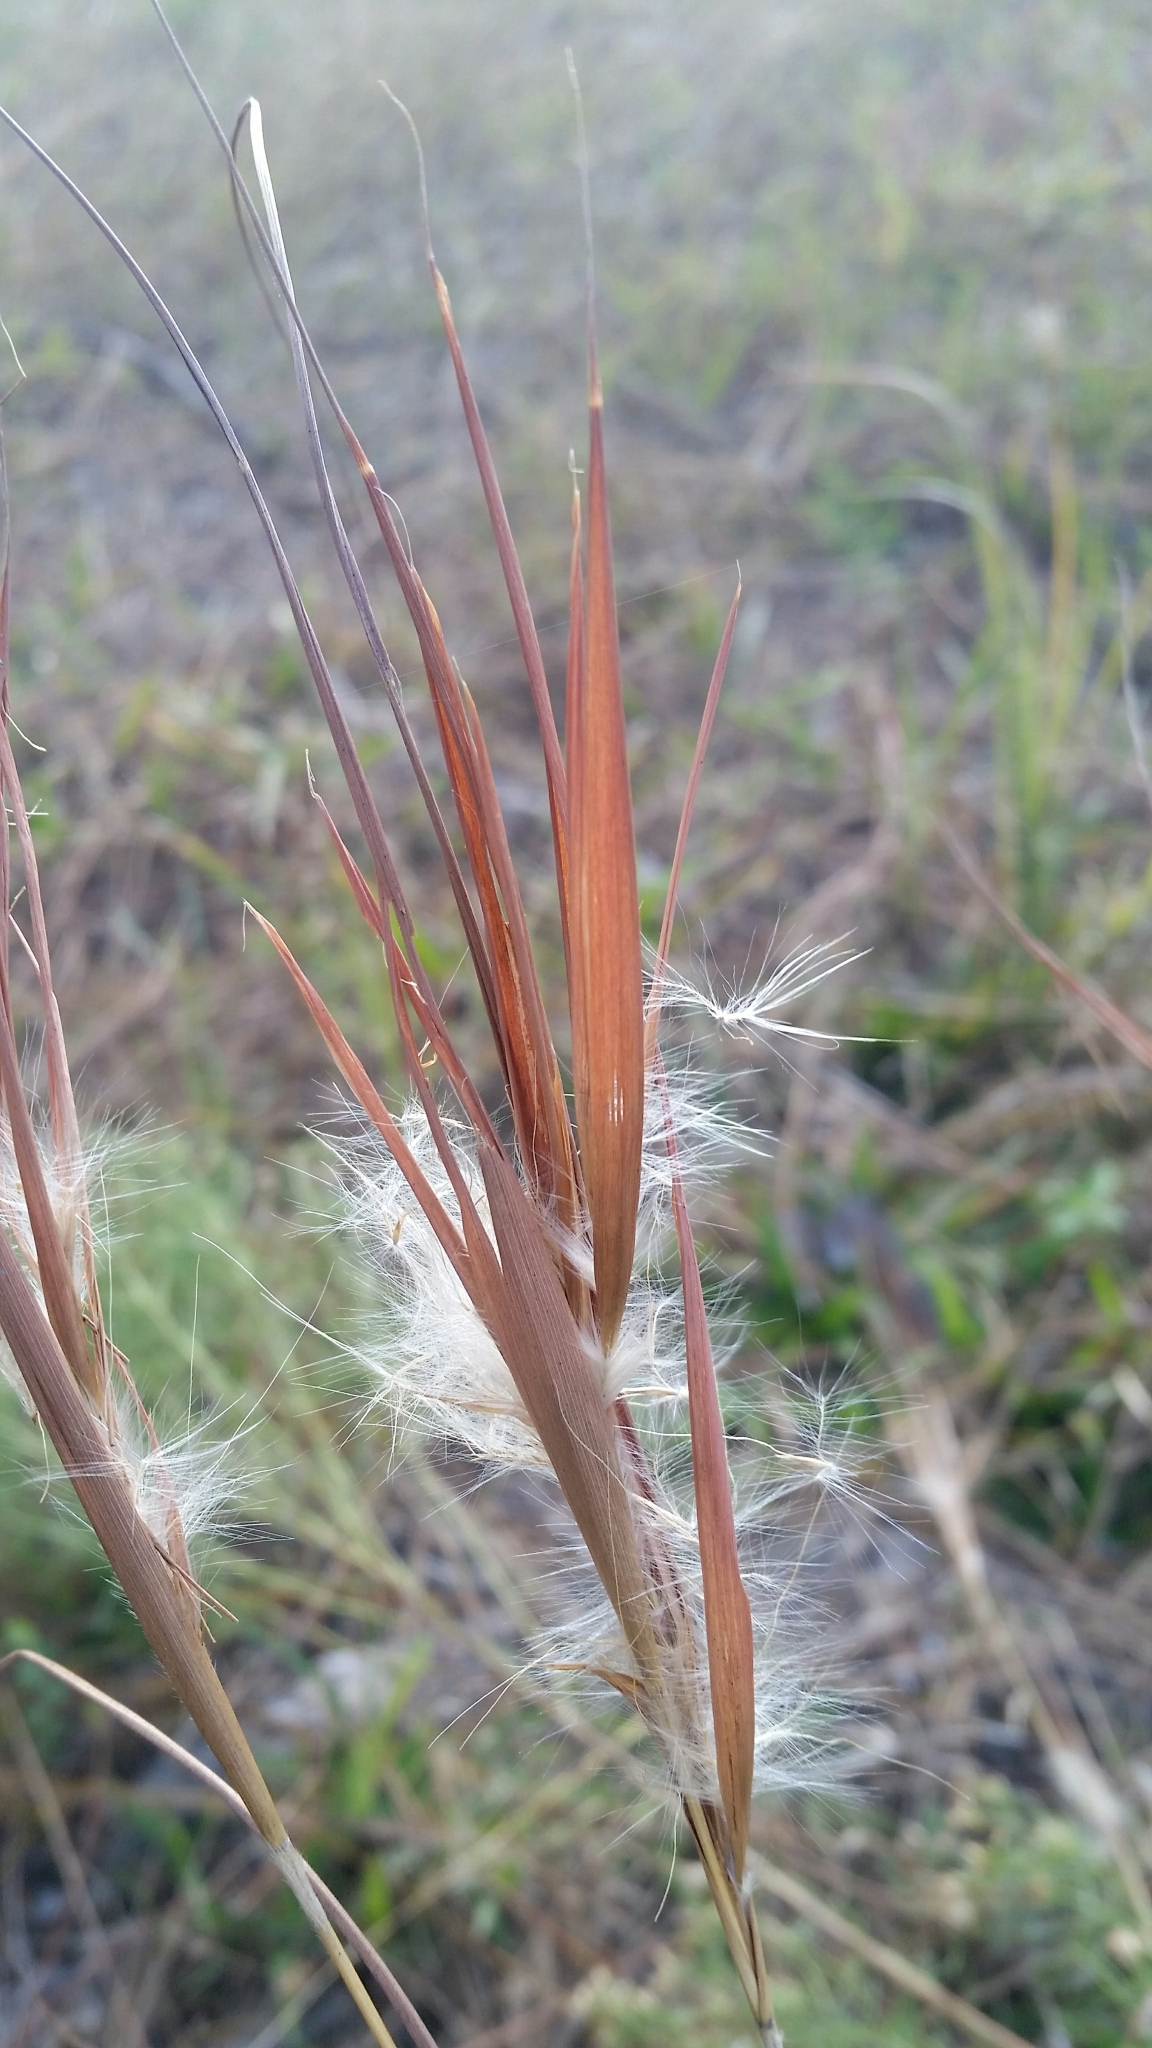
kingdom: Plantae
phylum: Tracheophyta
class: Liliopsida
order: Poales
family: Poaceae
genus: Andropogon
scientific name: Andropogon gyrans
